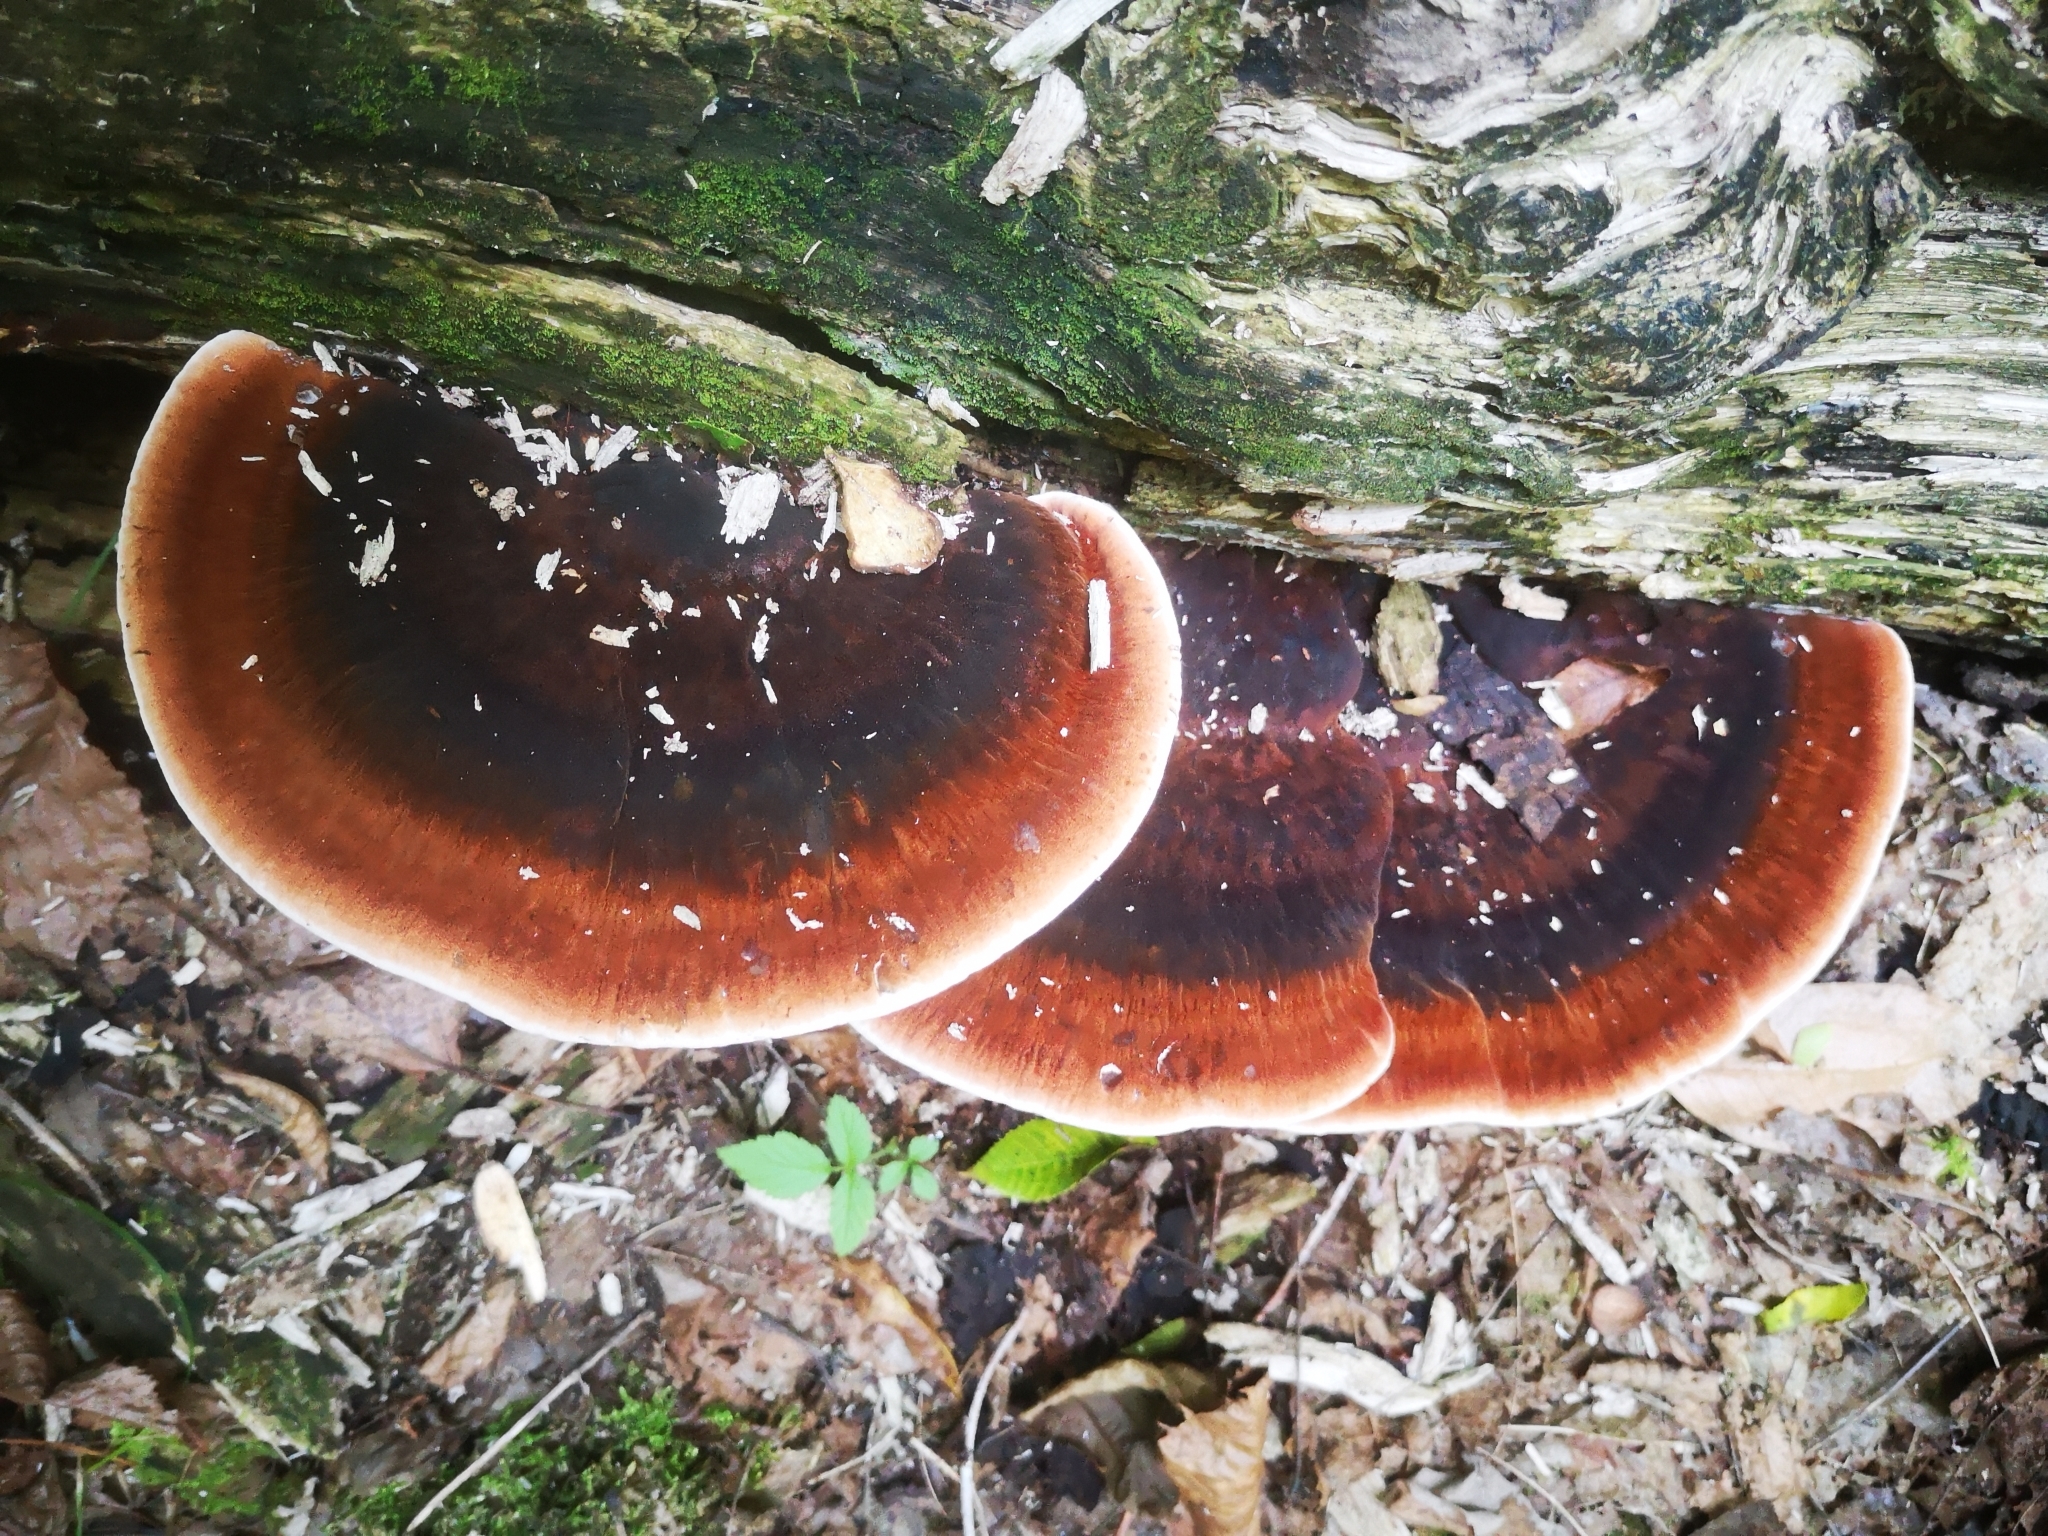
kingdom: Fungi
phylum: Basidiomycota
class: Agaricomycetes
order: Polyporales
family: Ischnodermataceae
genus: Ischnoderma
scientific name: Ischnoderma resinosum
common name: Resinous polypore
